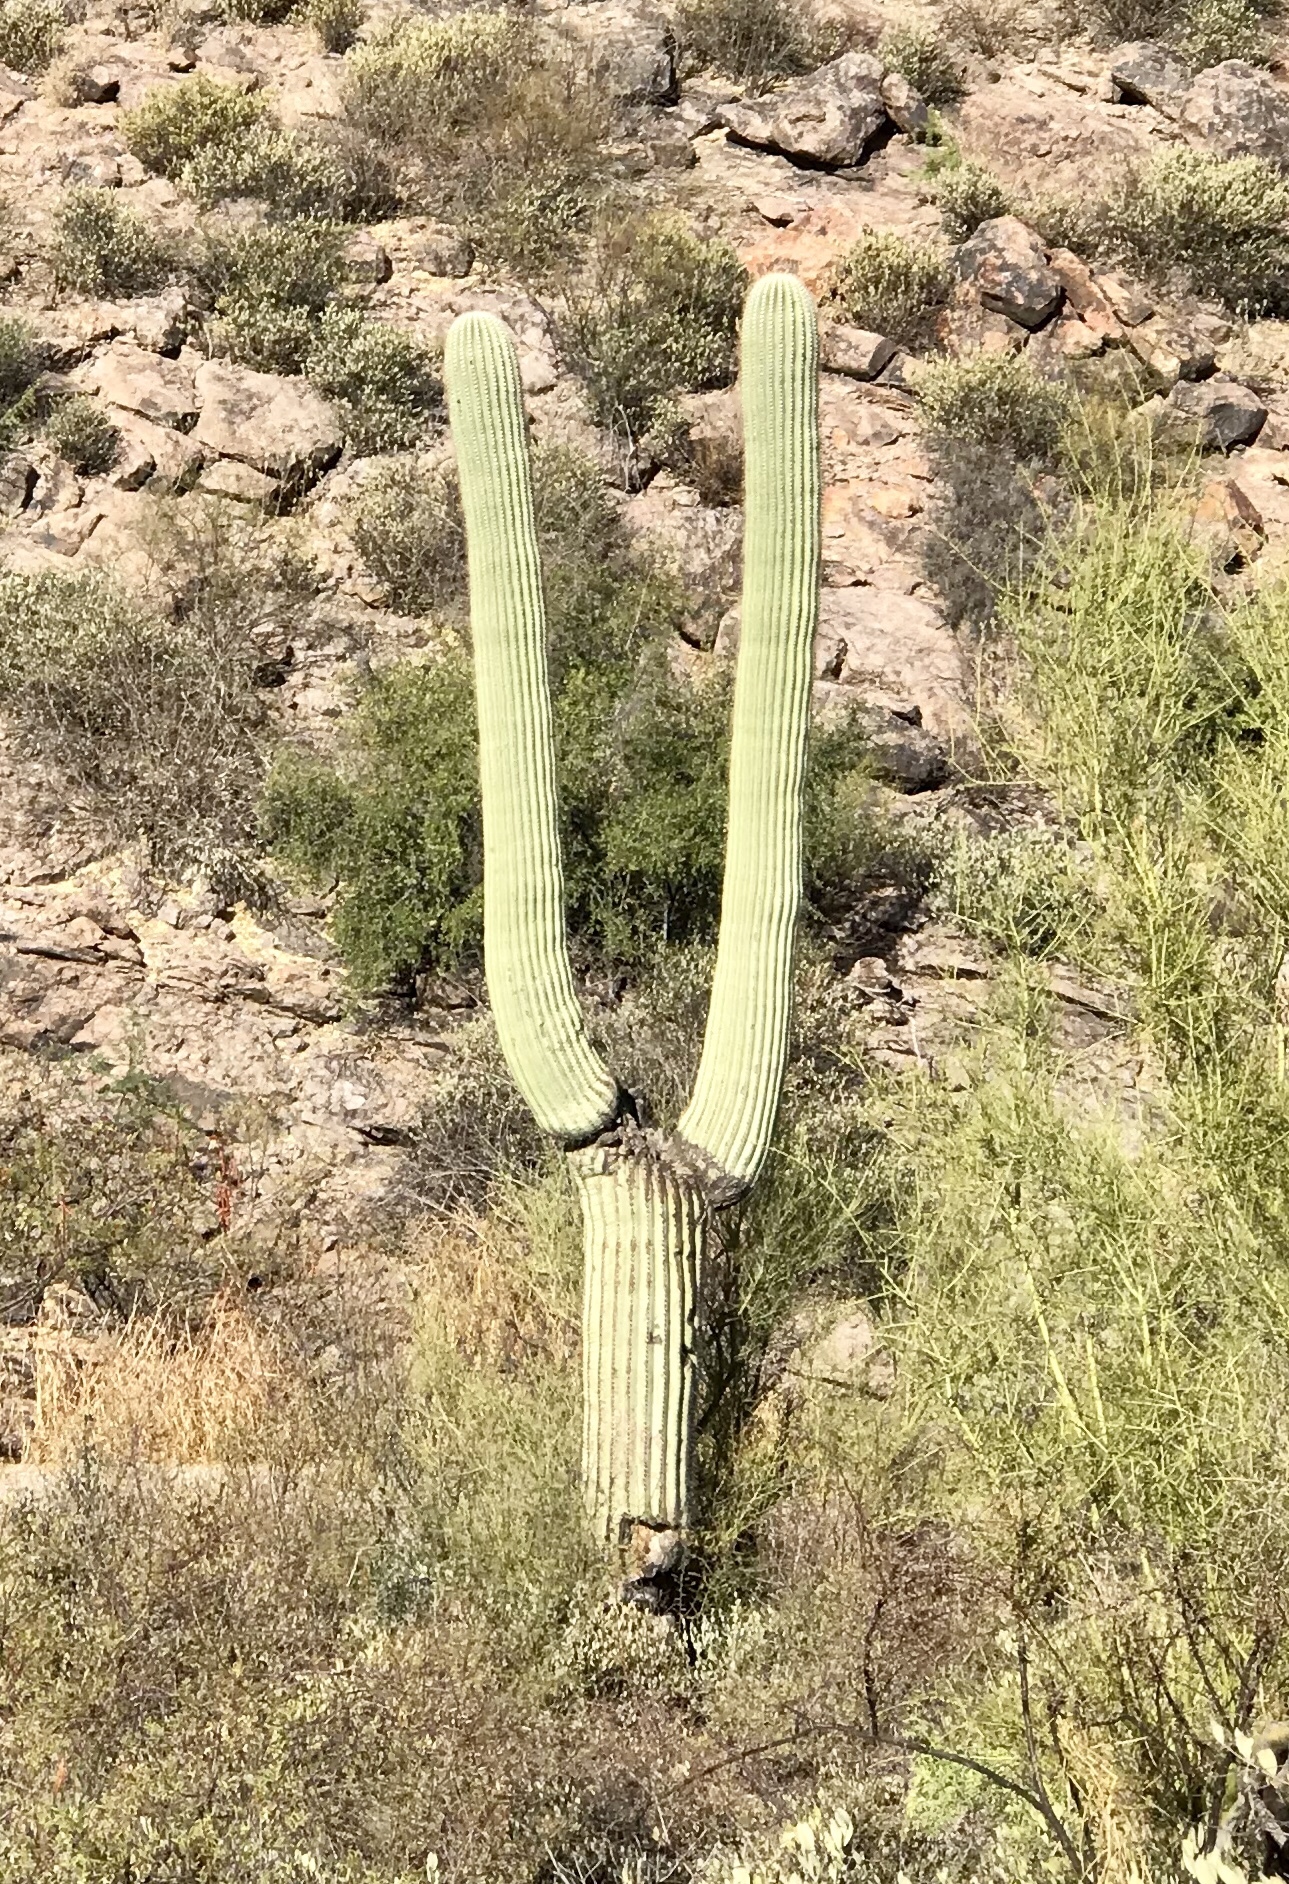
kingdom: Plantae
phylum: Tracheophyta
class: Magnoliopsida
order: Caryophyllales
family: Cactaceae
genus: Carnegiea
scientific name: Carnegiea gigantea
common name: Saguaro
